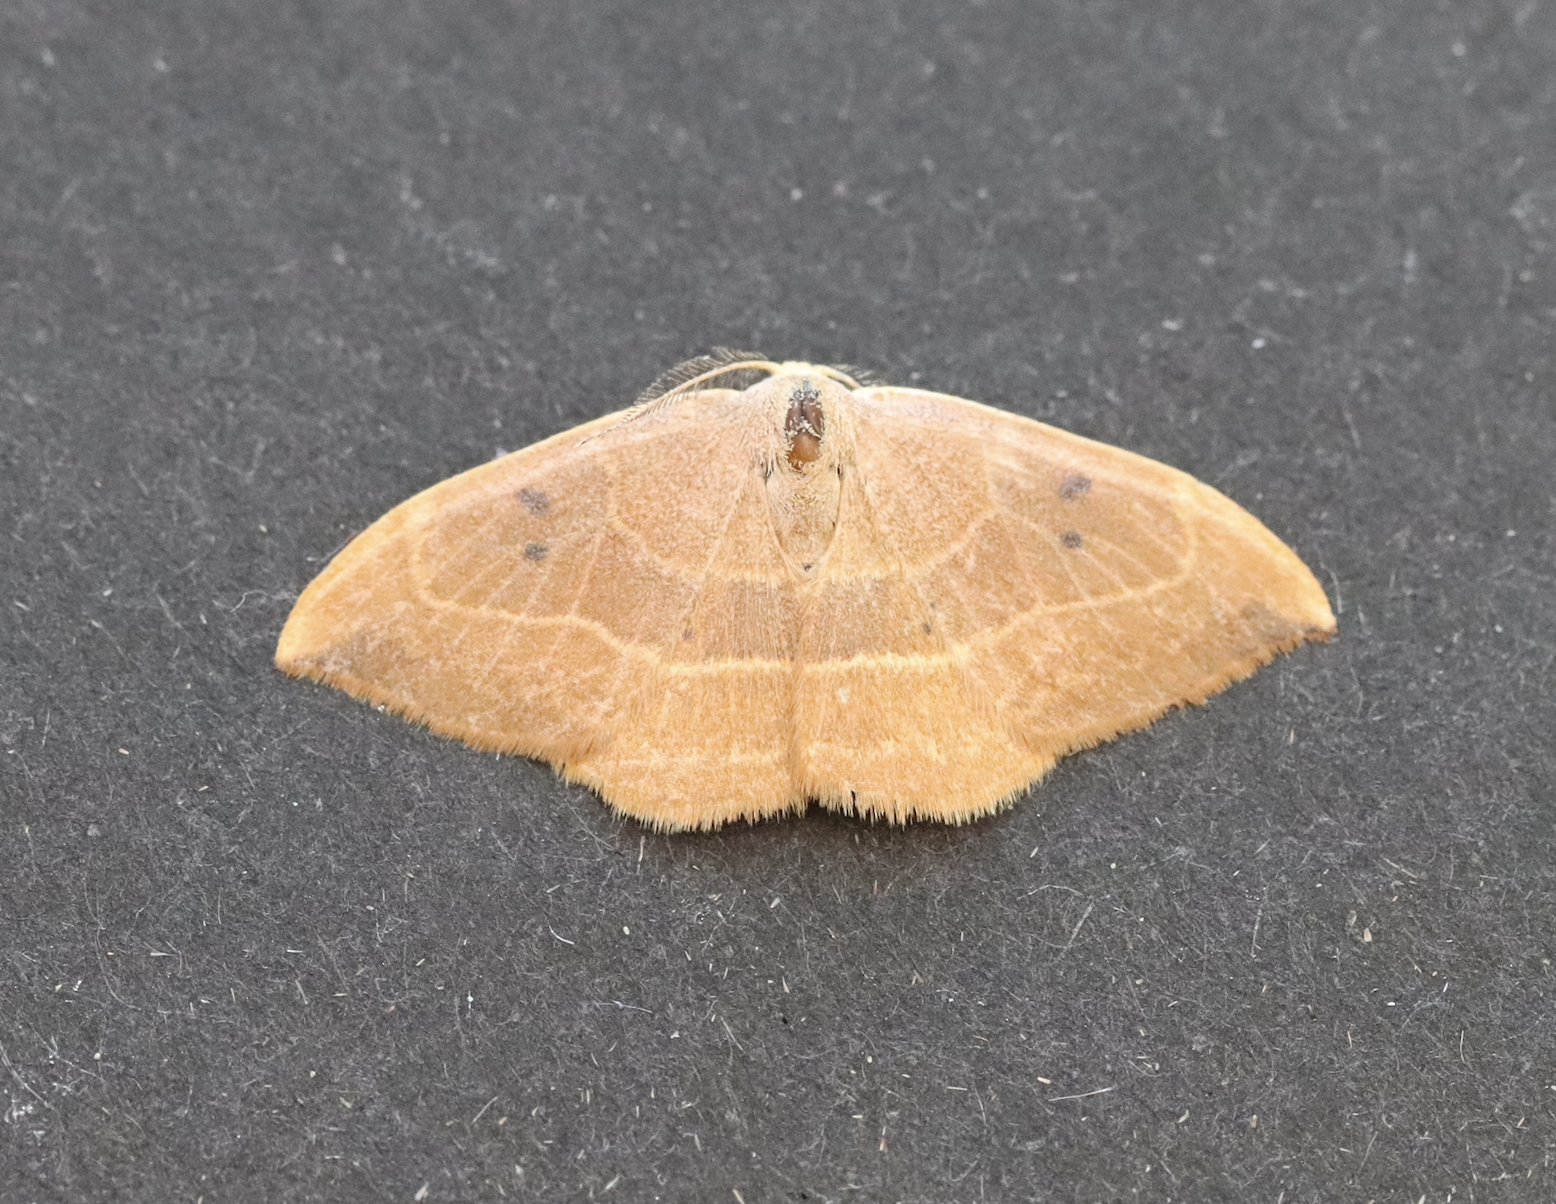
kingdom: Animalia
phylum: Arthropoda
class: Insecta
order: Lepidoptera
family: Drepanidae
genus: Watsonalla
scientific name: Watsonalla binaria
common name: Oak hook-tip
